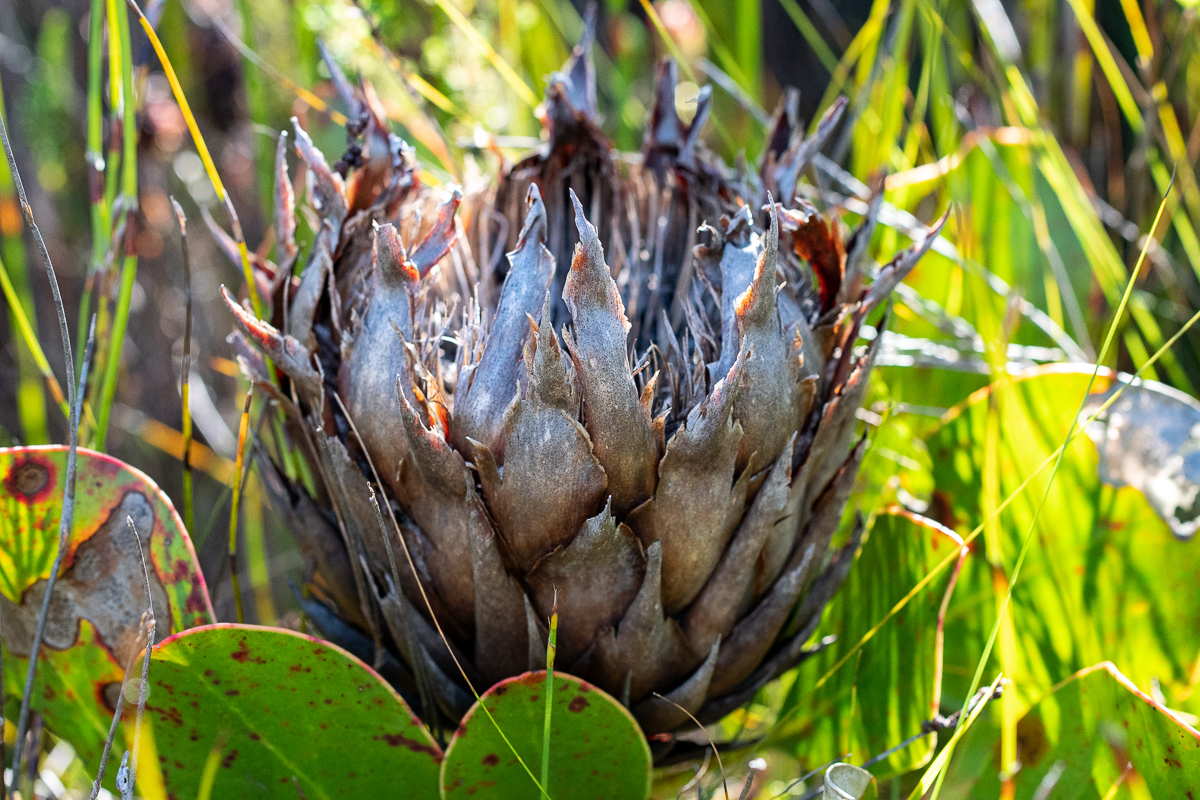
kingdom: Plantae
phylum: Tracheophyta
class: Magnoliopsida
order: Proteales
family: Proteaceae
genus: Protea
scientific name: Protea cynaroides
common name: King protea
